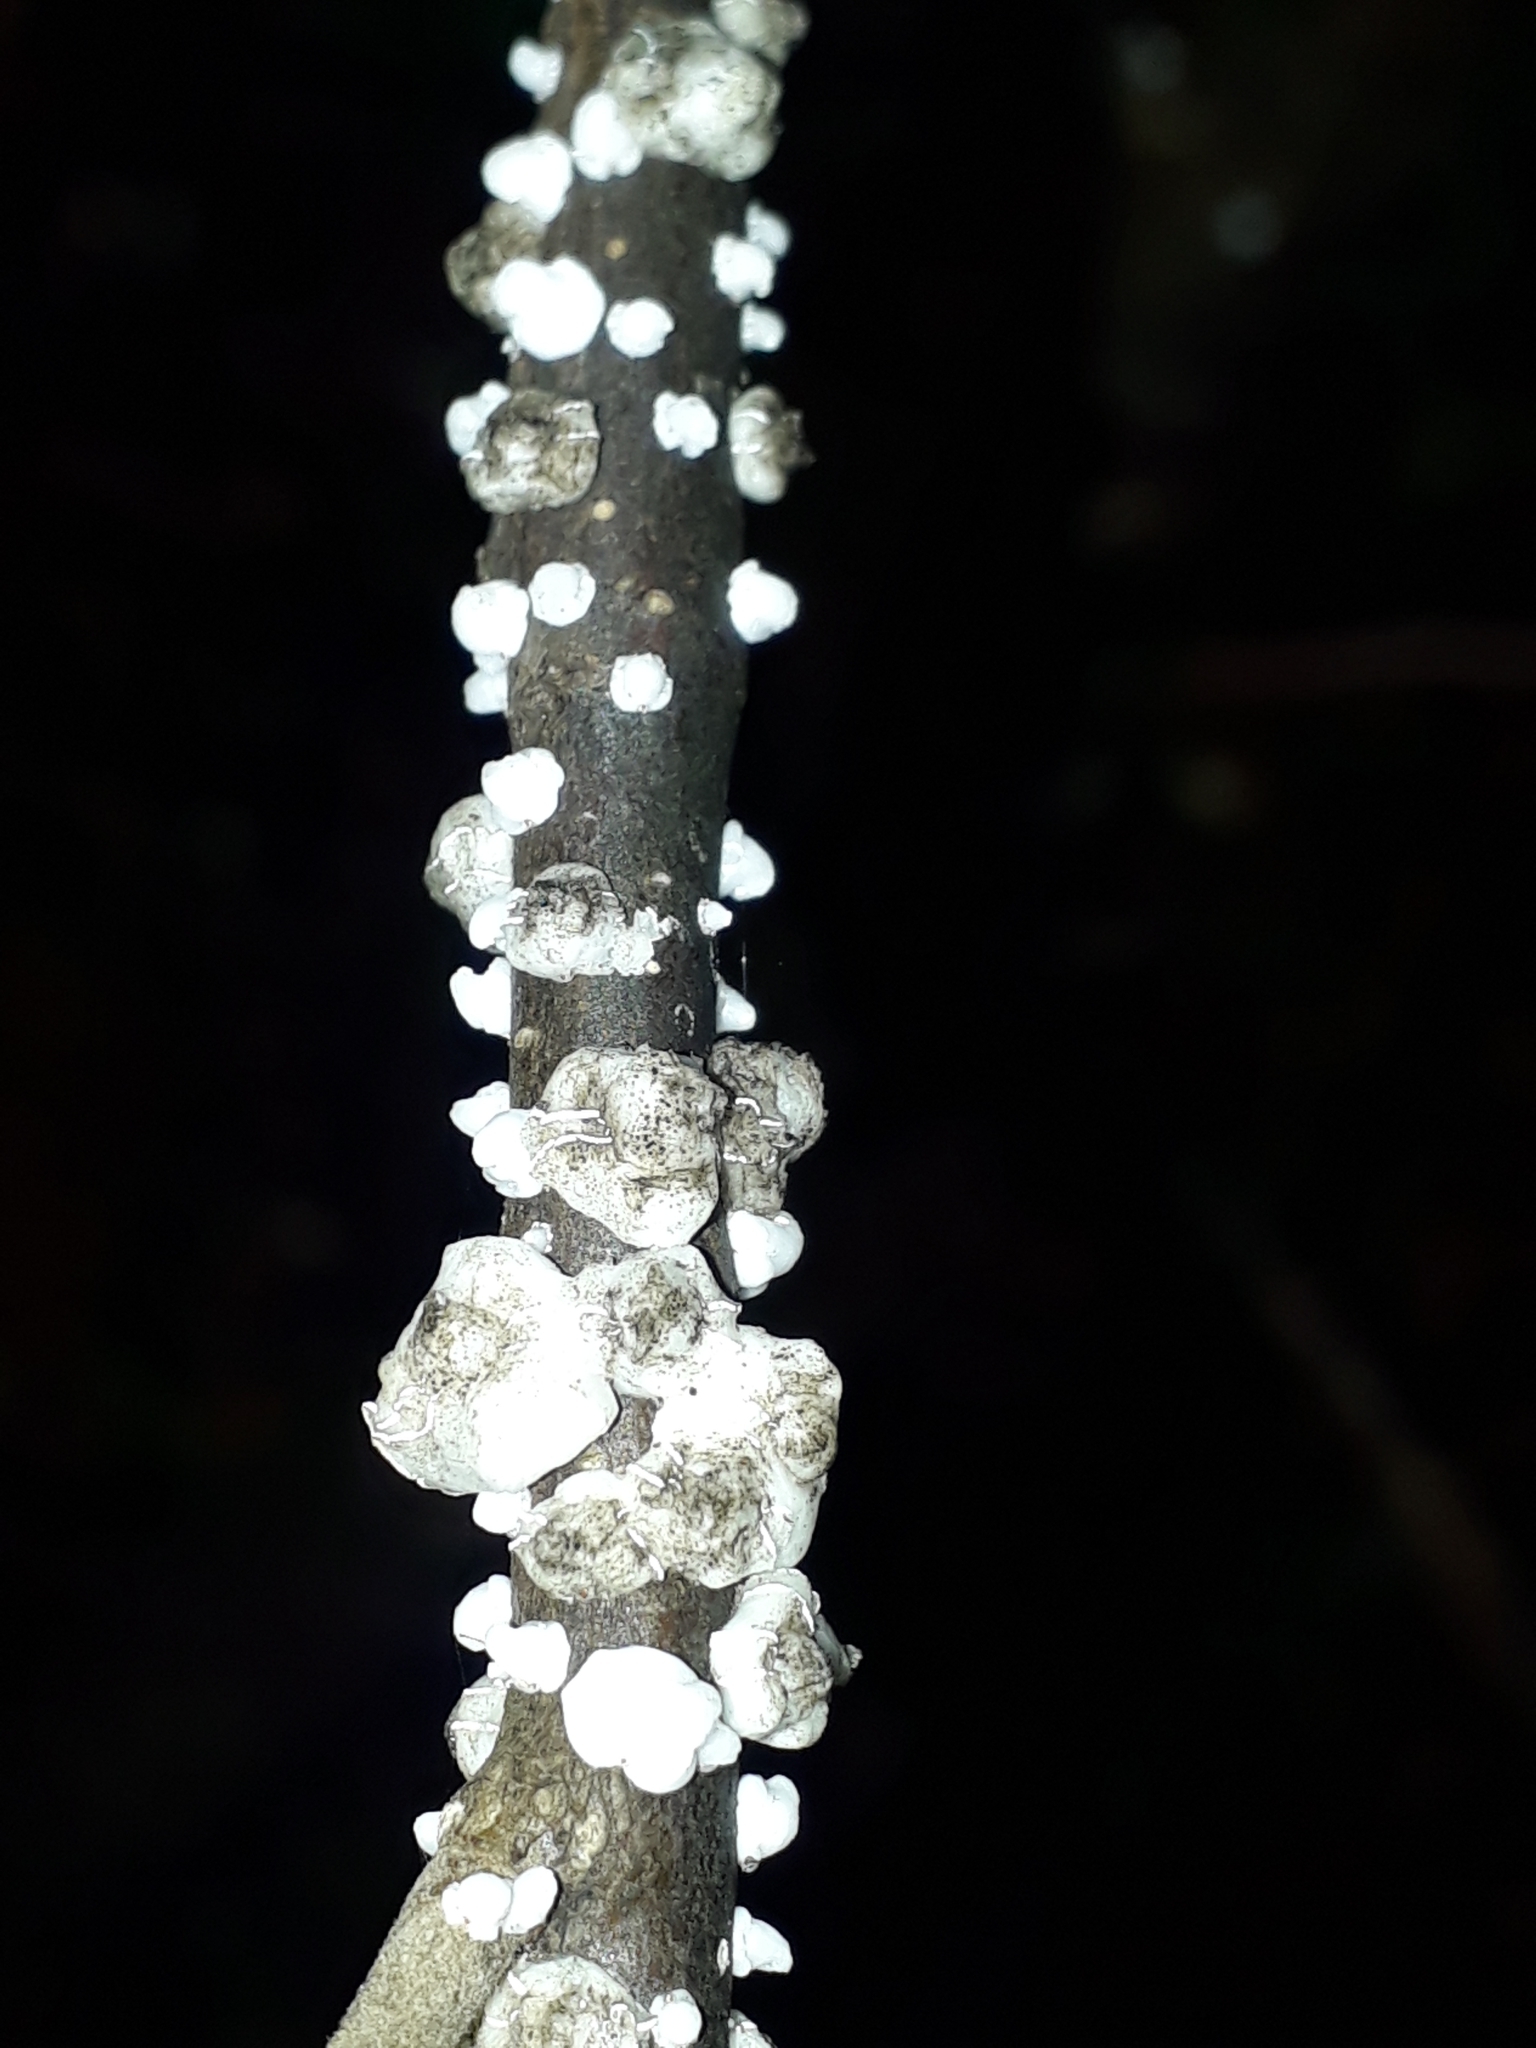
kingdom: Animalia
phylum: Arthropoda
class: Insecta
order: Hemiptera
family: Coccidae
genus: Ceroplastes
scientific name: Ceroplastes destructor
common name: Indian wax scale
